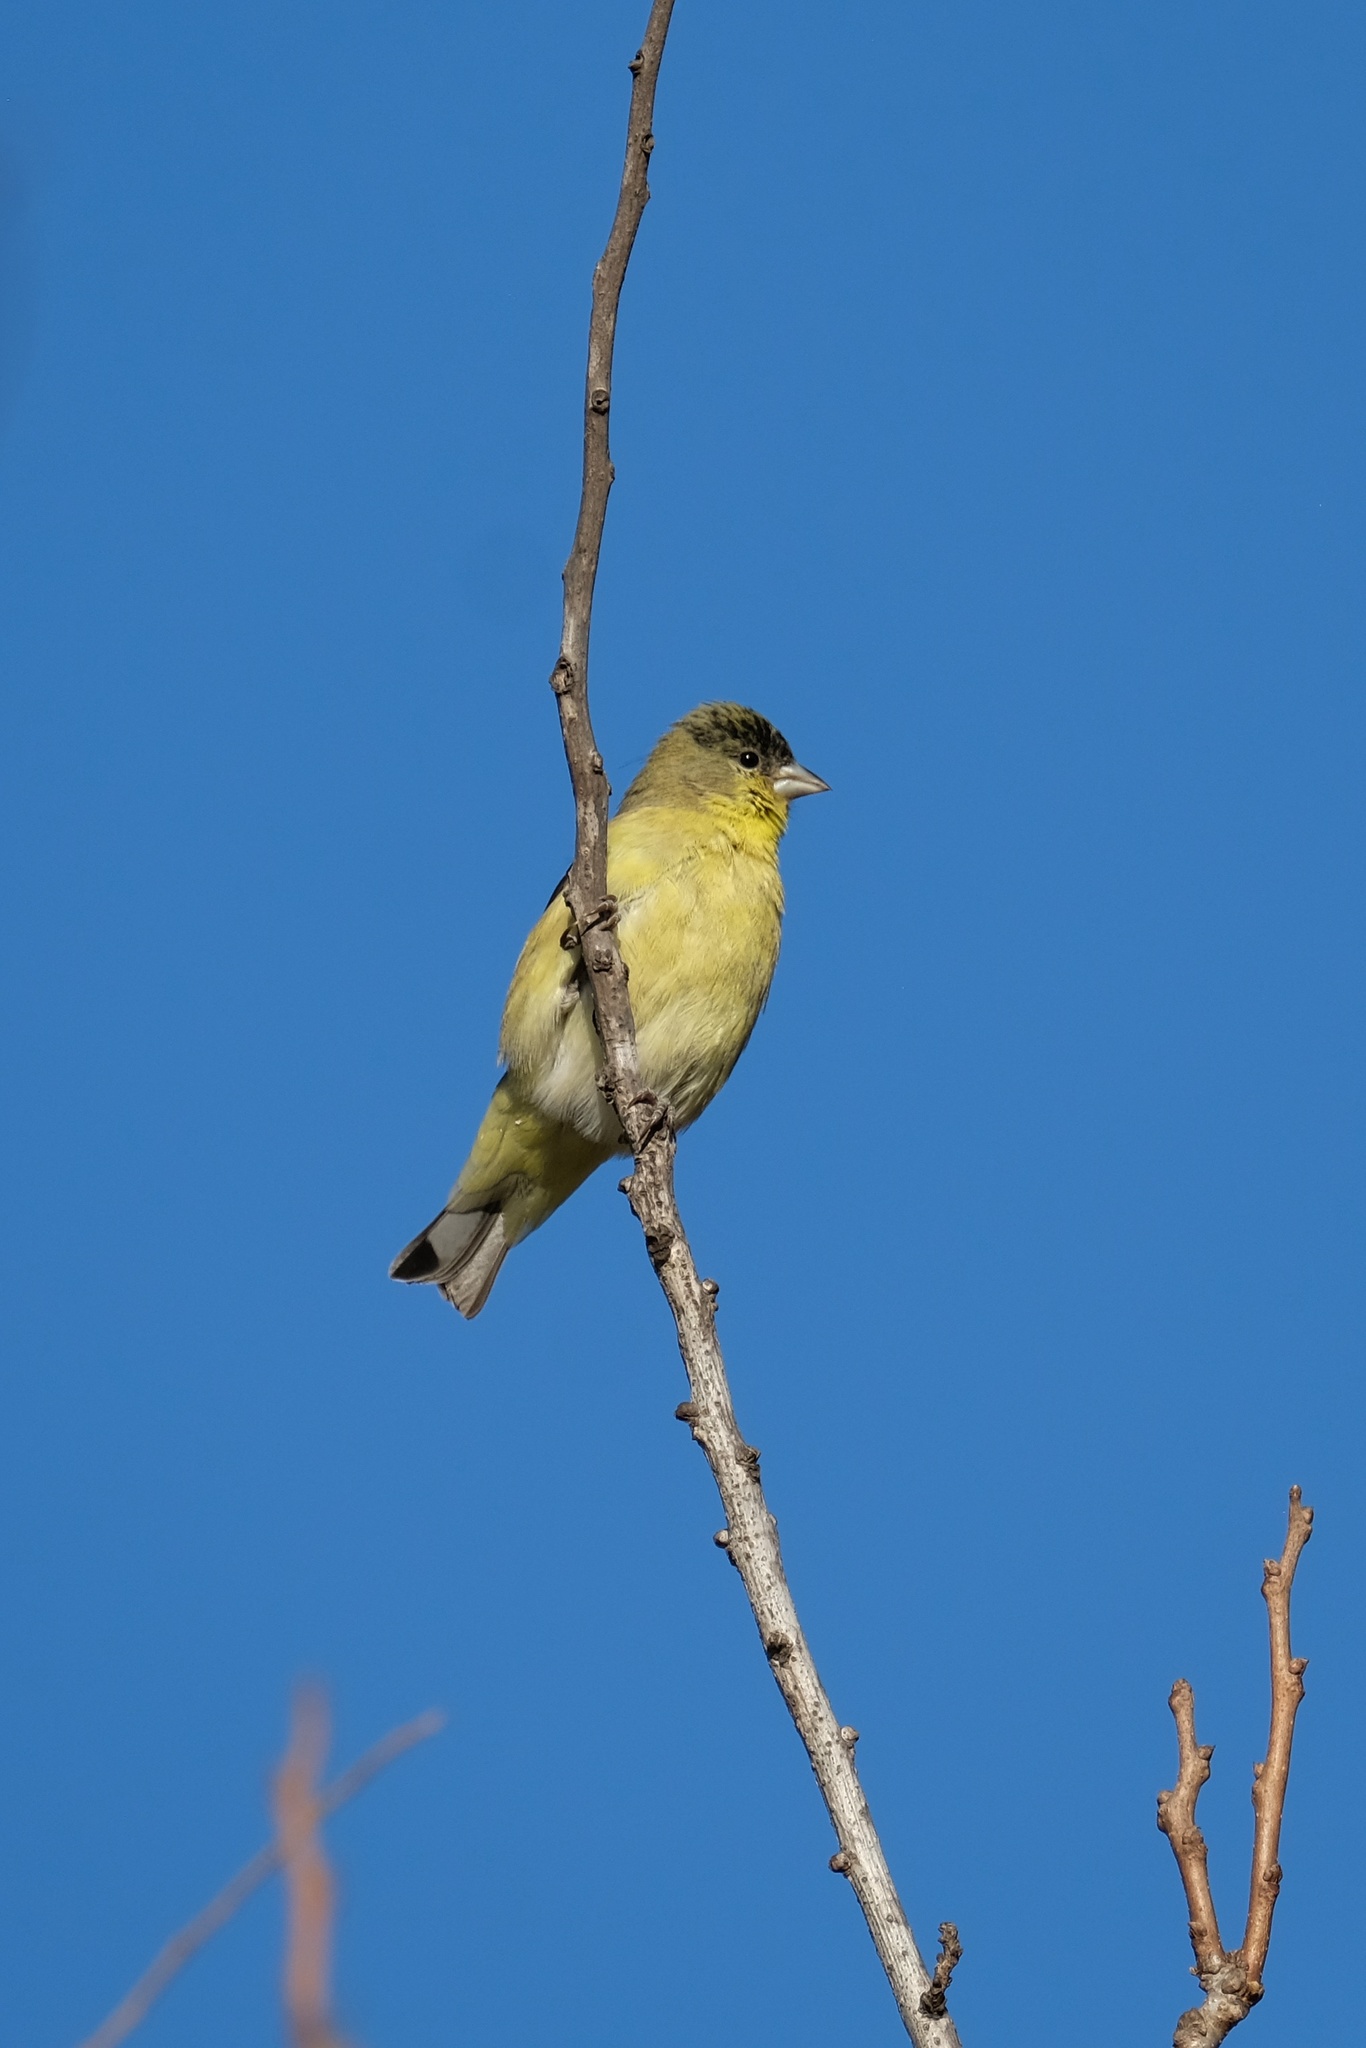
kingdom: Animalia
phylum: Chordata
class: Aves
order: Passeriformes
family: Fringillidae
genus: Spinus
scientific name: Spinus psaltria
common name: Lesser goldfinch
